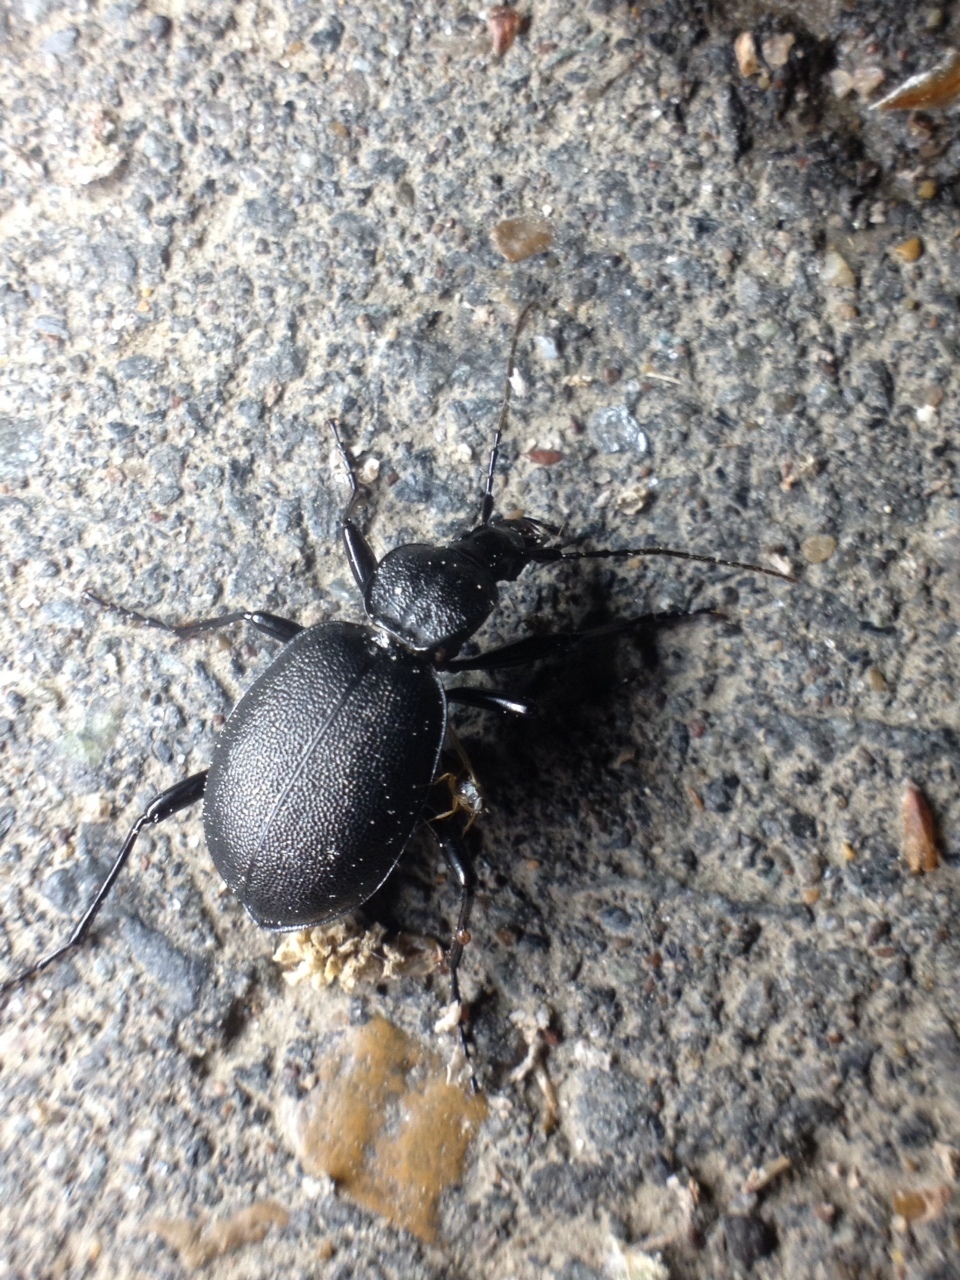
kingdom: Animalia
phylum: Arthropoda
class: Insecta
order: Coleoptera
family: Carabidae
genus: Cychrus
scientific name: Cychrus caraboides
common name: Snail hunter
